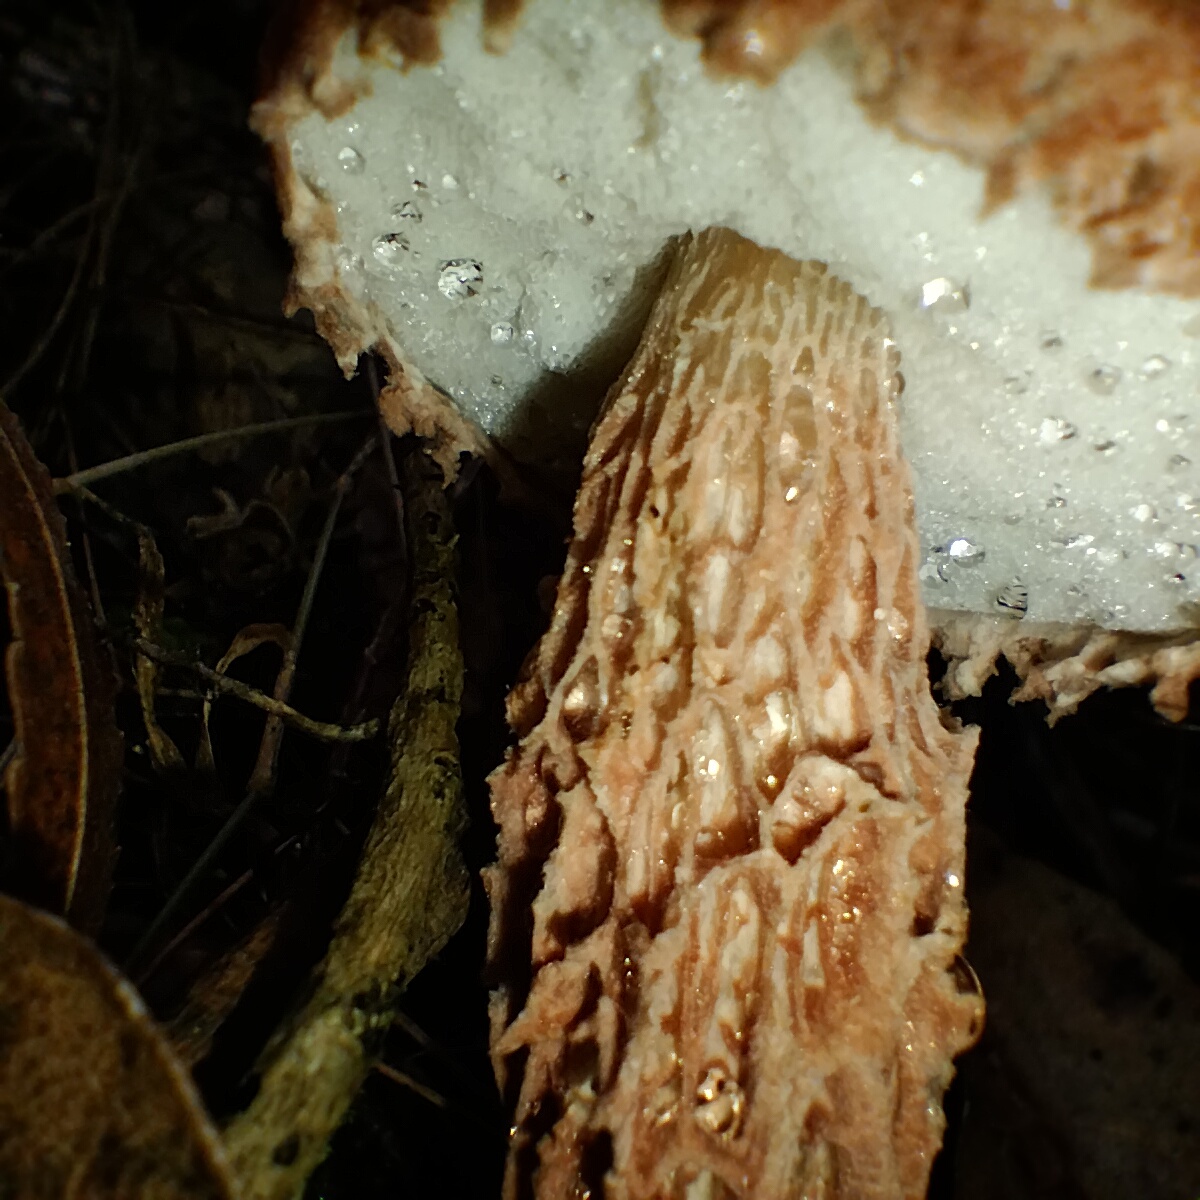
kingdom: Fungi
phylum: Basidiomycota
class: Agaricomycetes
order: Boletales
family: Boletaceae
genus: Austroboletus
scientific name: Austroboletus lacunosus
